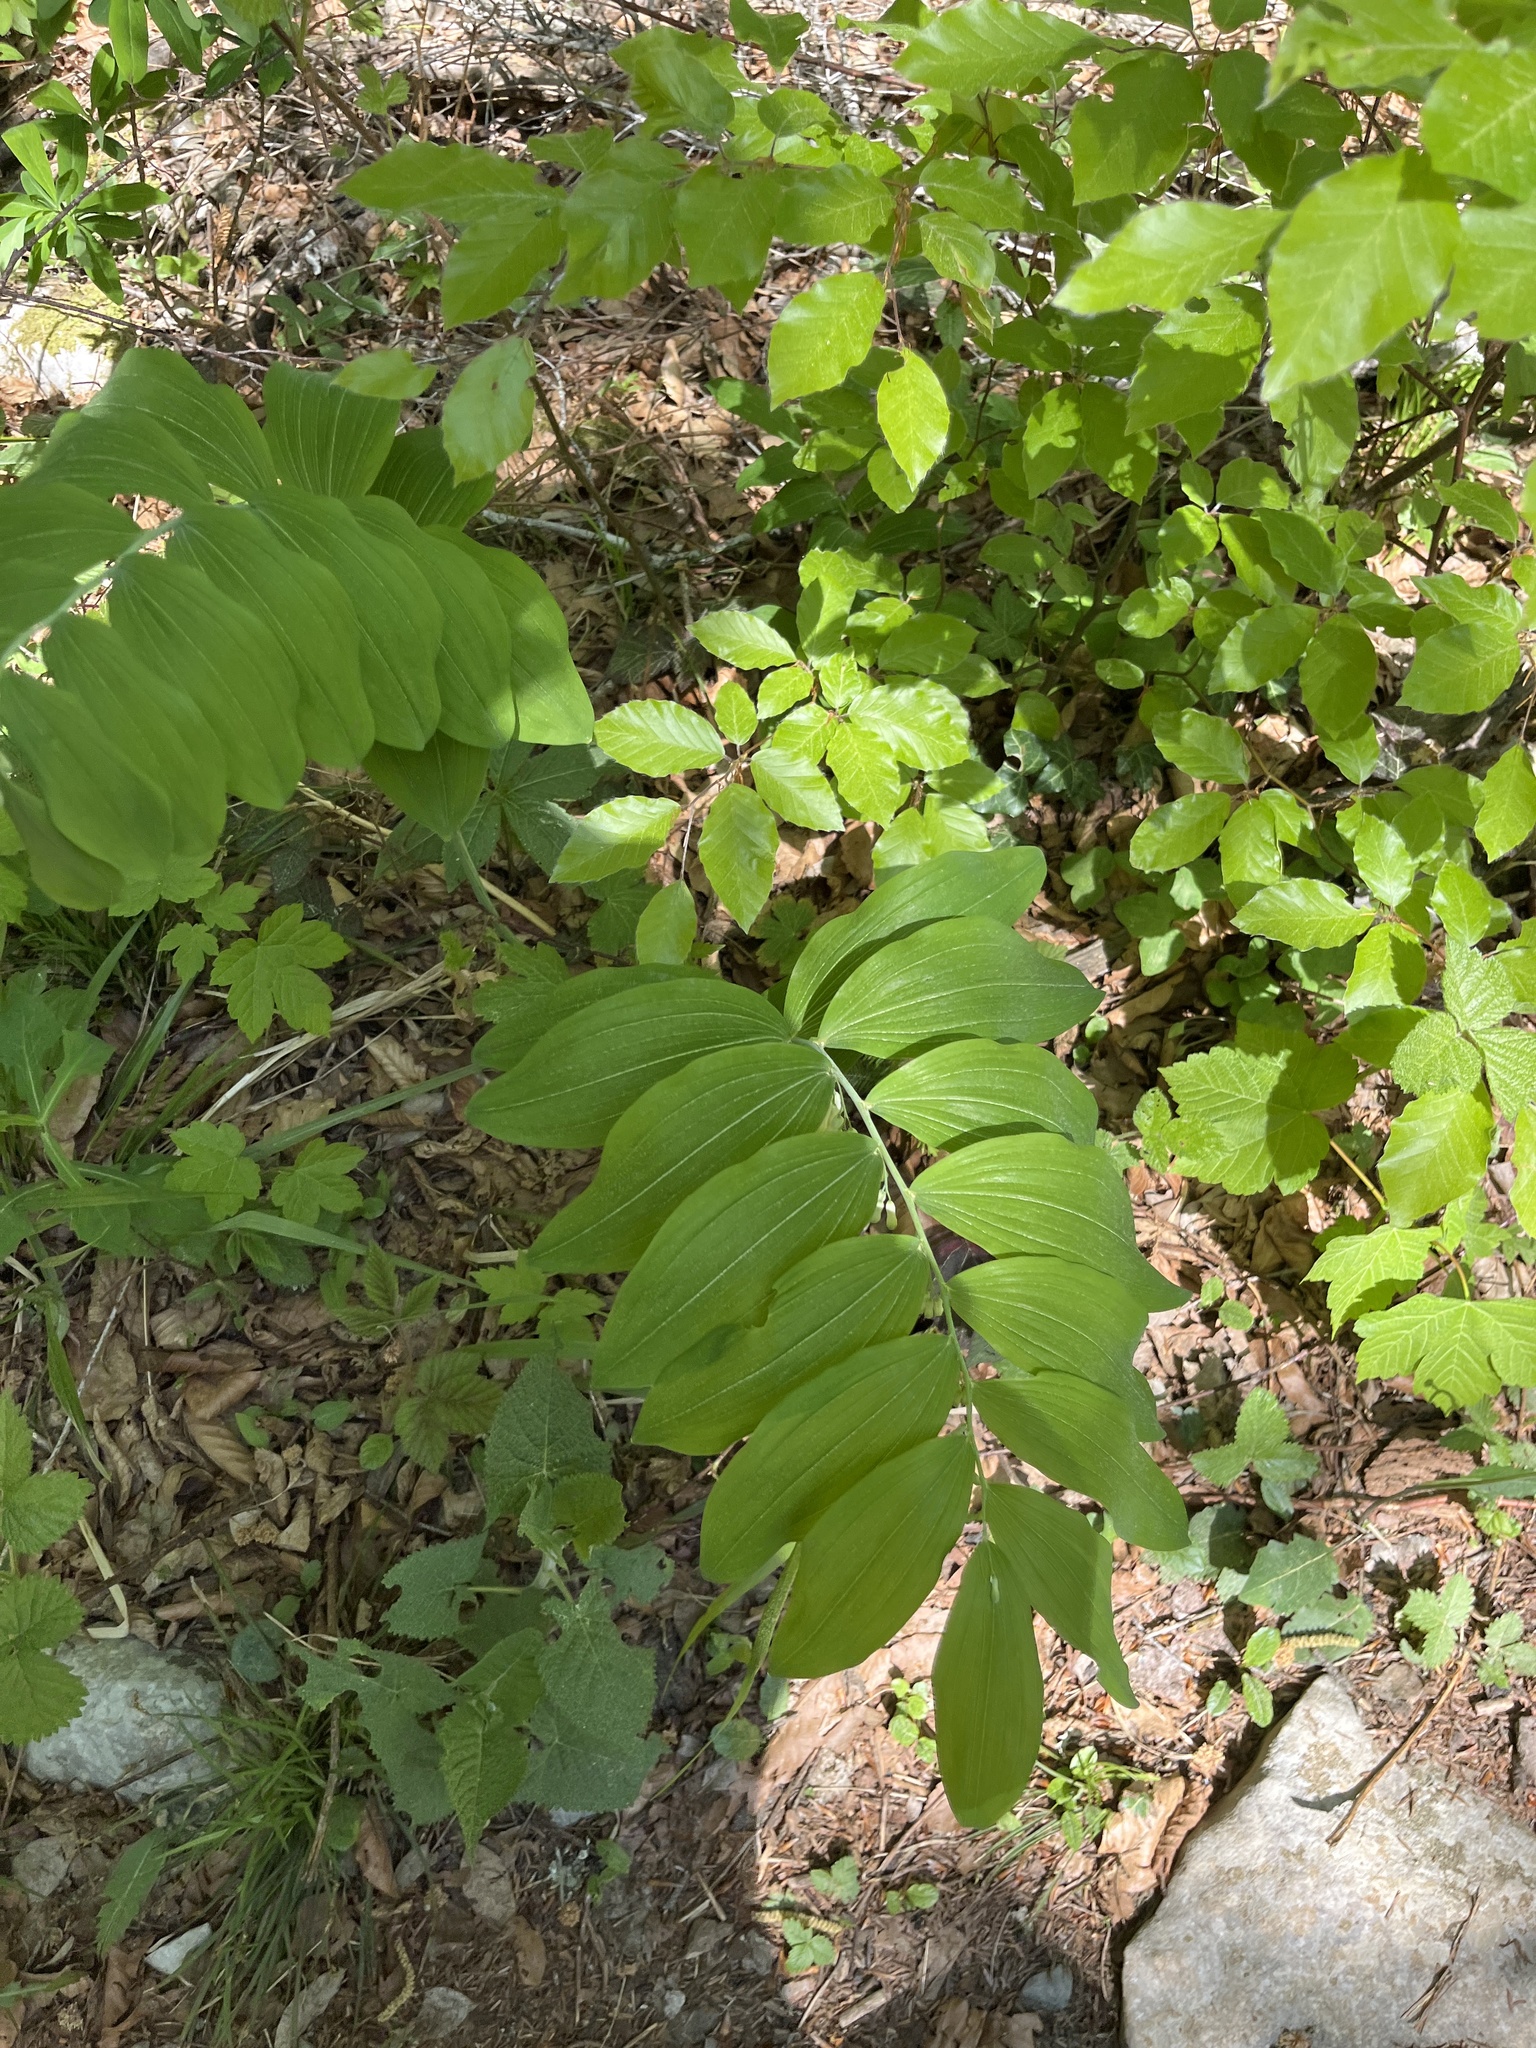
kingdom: Plantae
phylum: Tracheophyta
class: Liliopsida
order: Asparagales
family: Asparagaceae
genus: Polygonatum
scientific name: Polygonatum multiflorum
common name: Solomon's-seal
